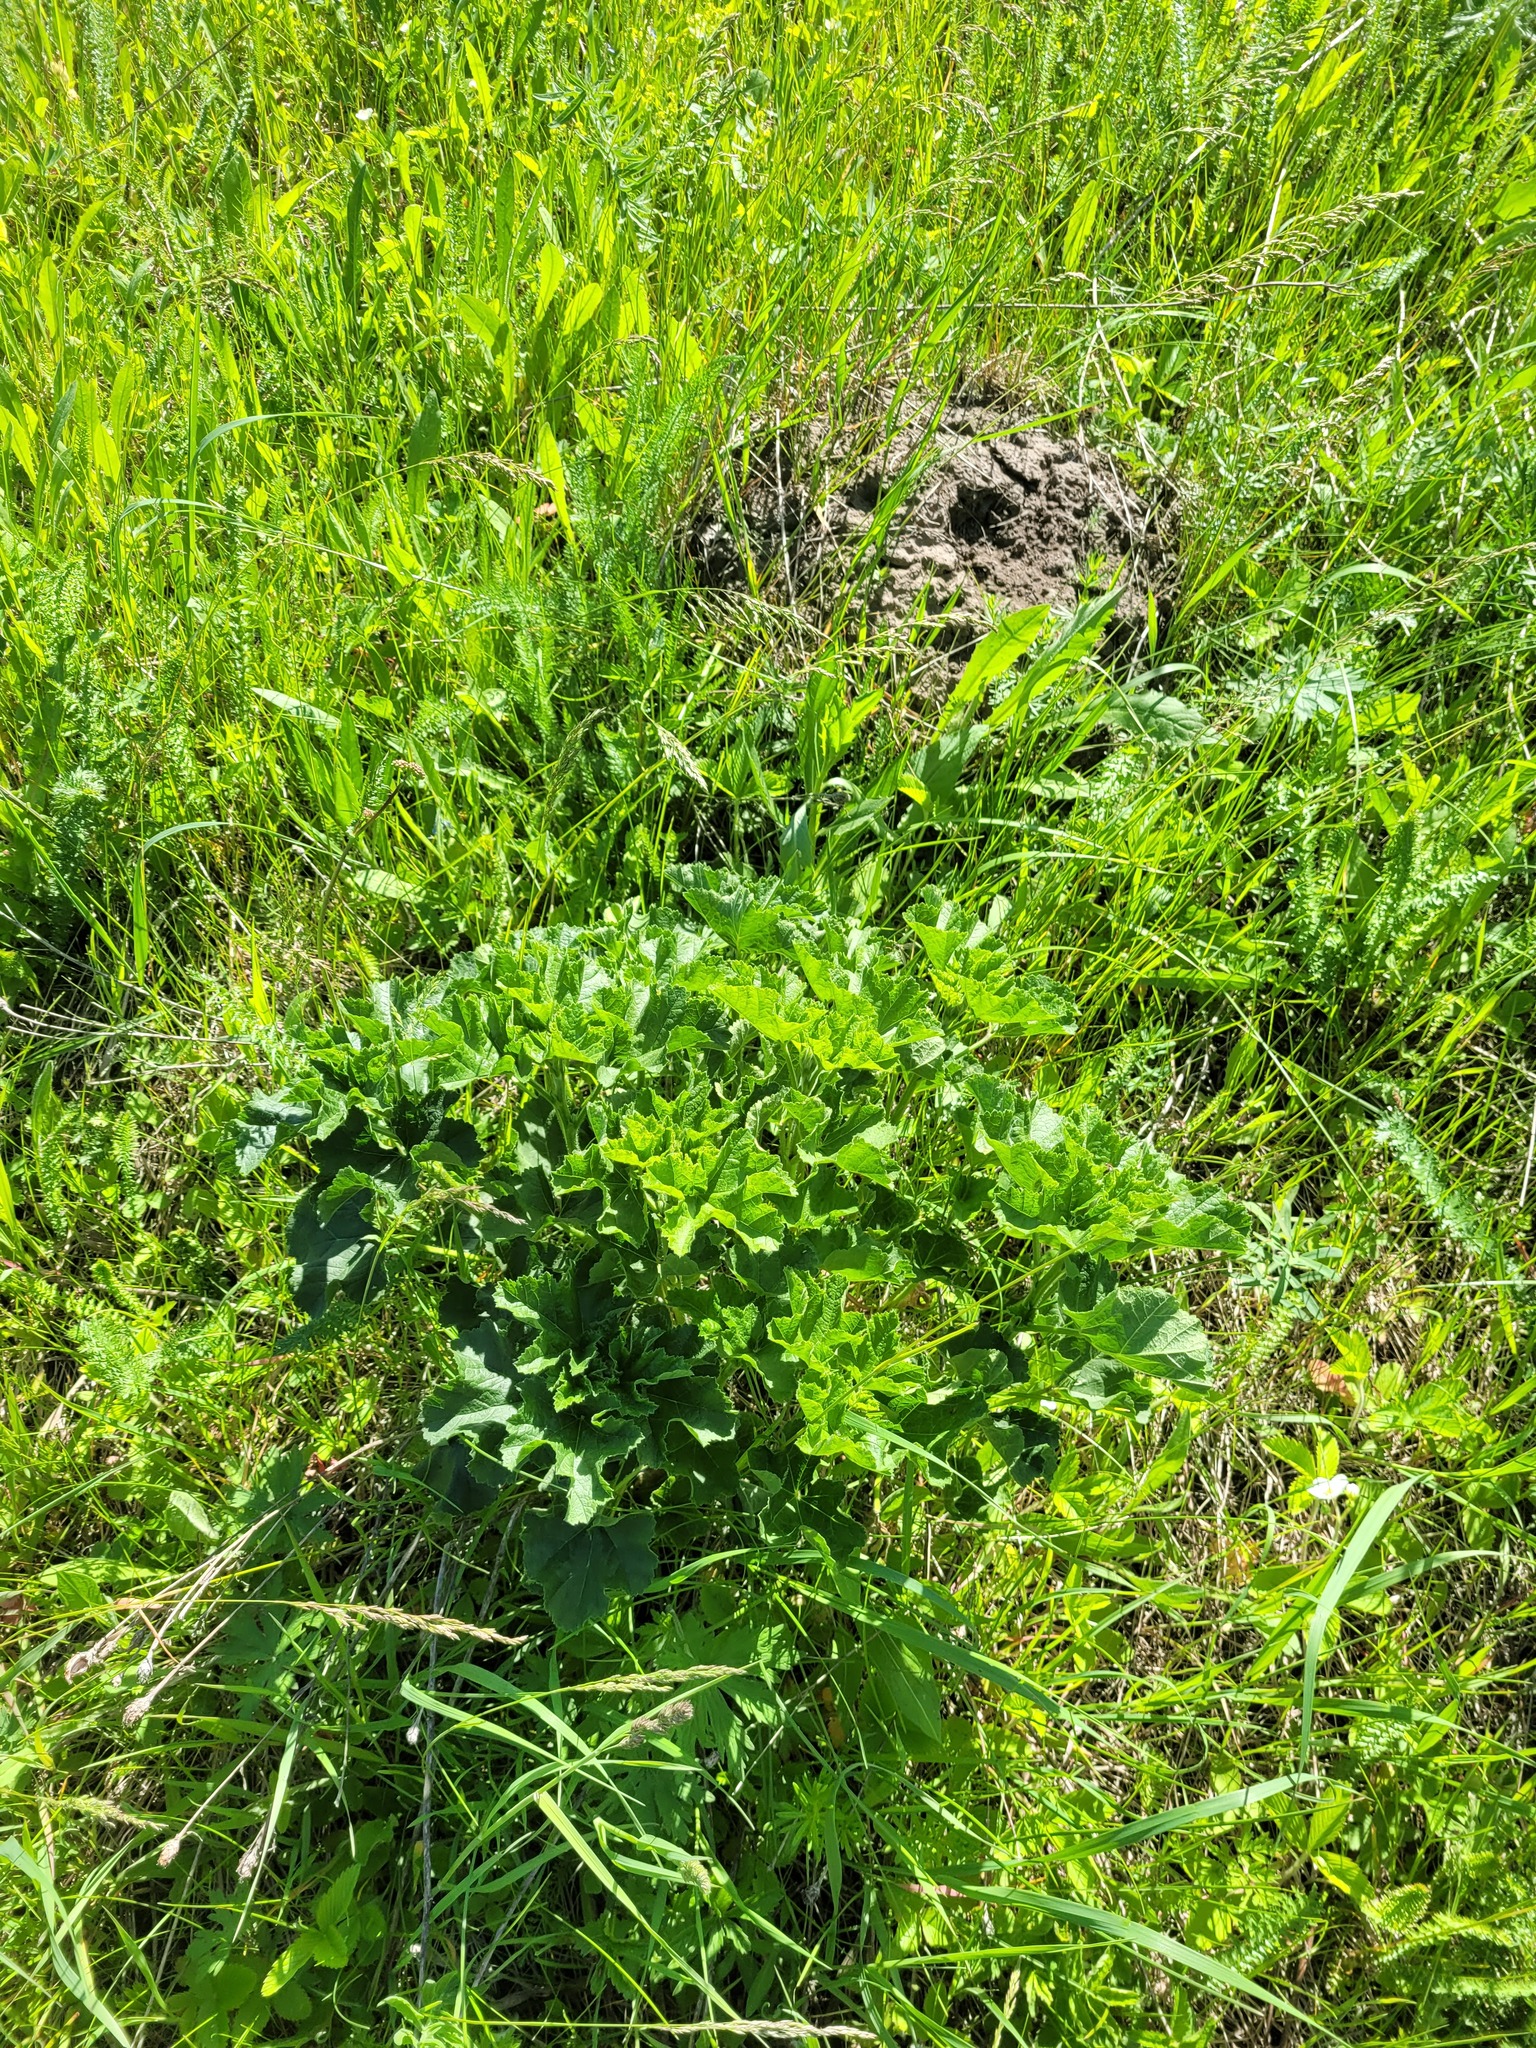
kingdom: Plantae
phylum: Tracheophyta
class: Magnoliopsida
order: Malvales
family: Malvaceae
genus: Malva
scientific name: Malva thuringiaca
